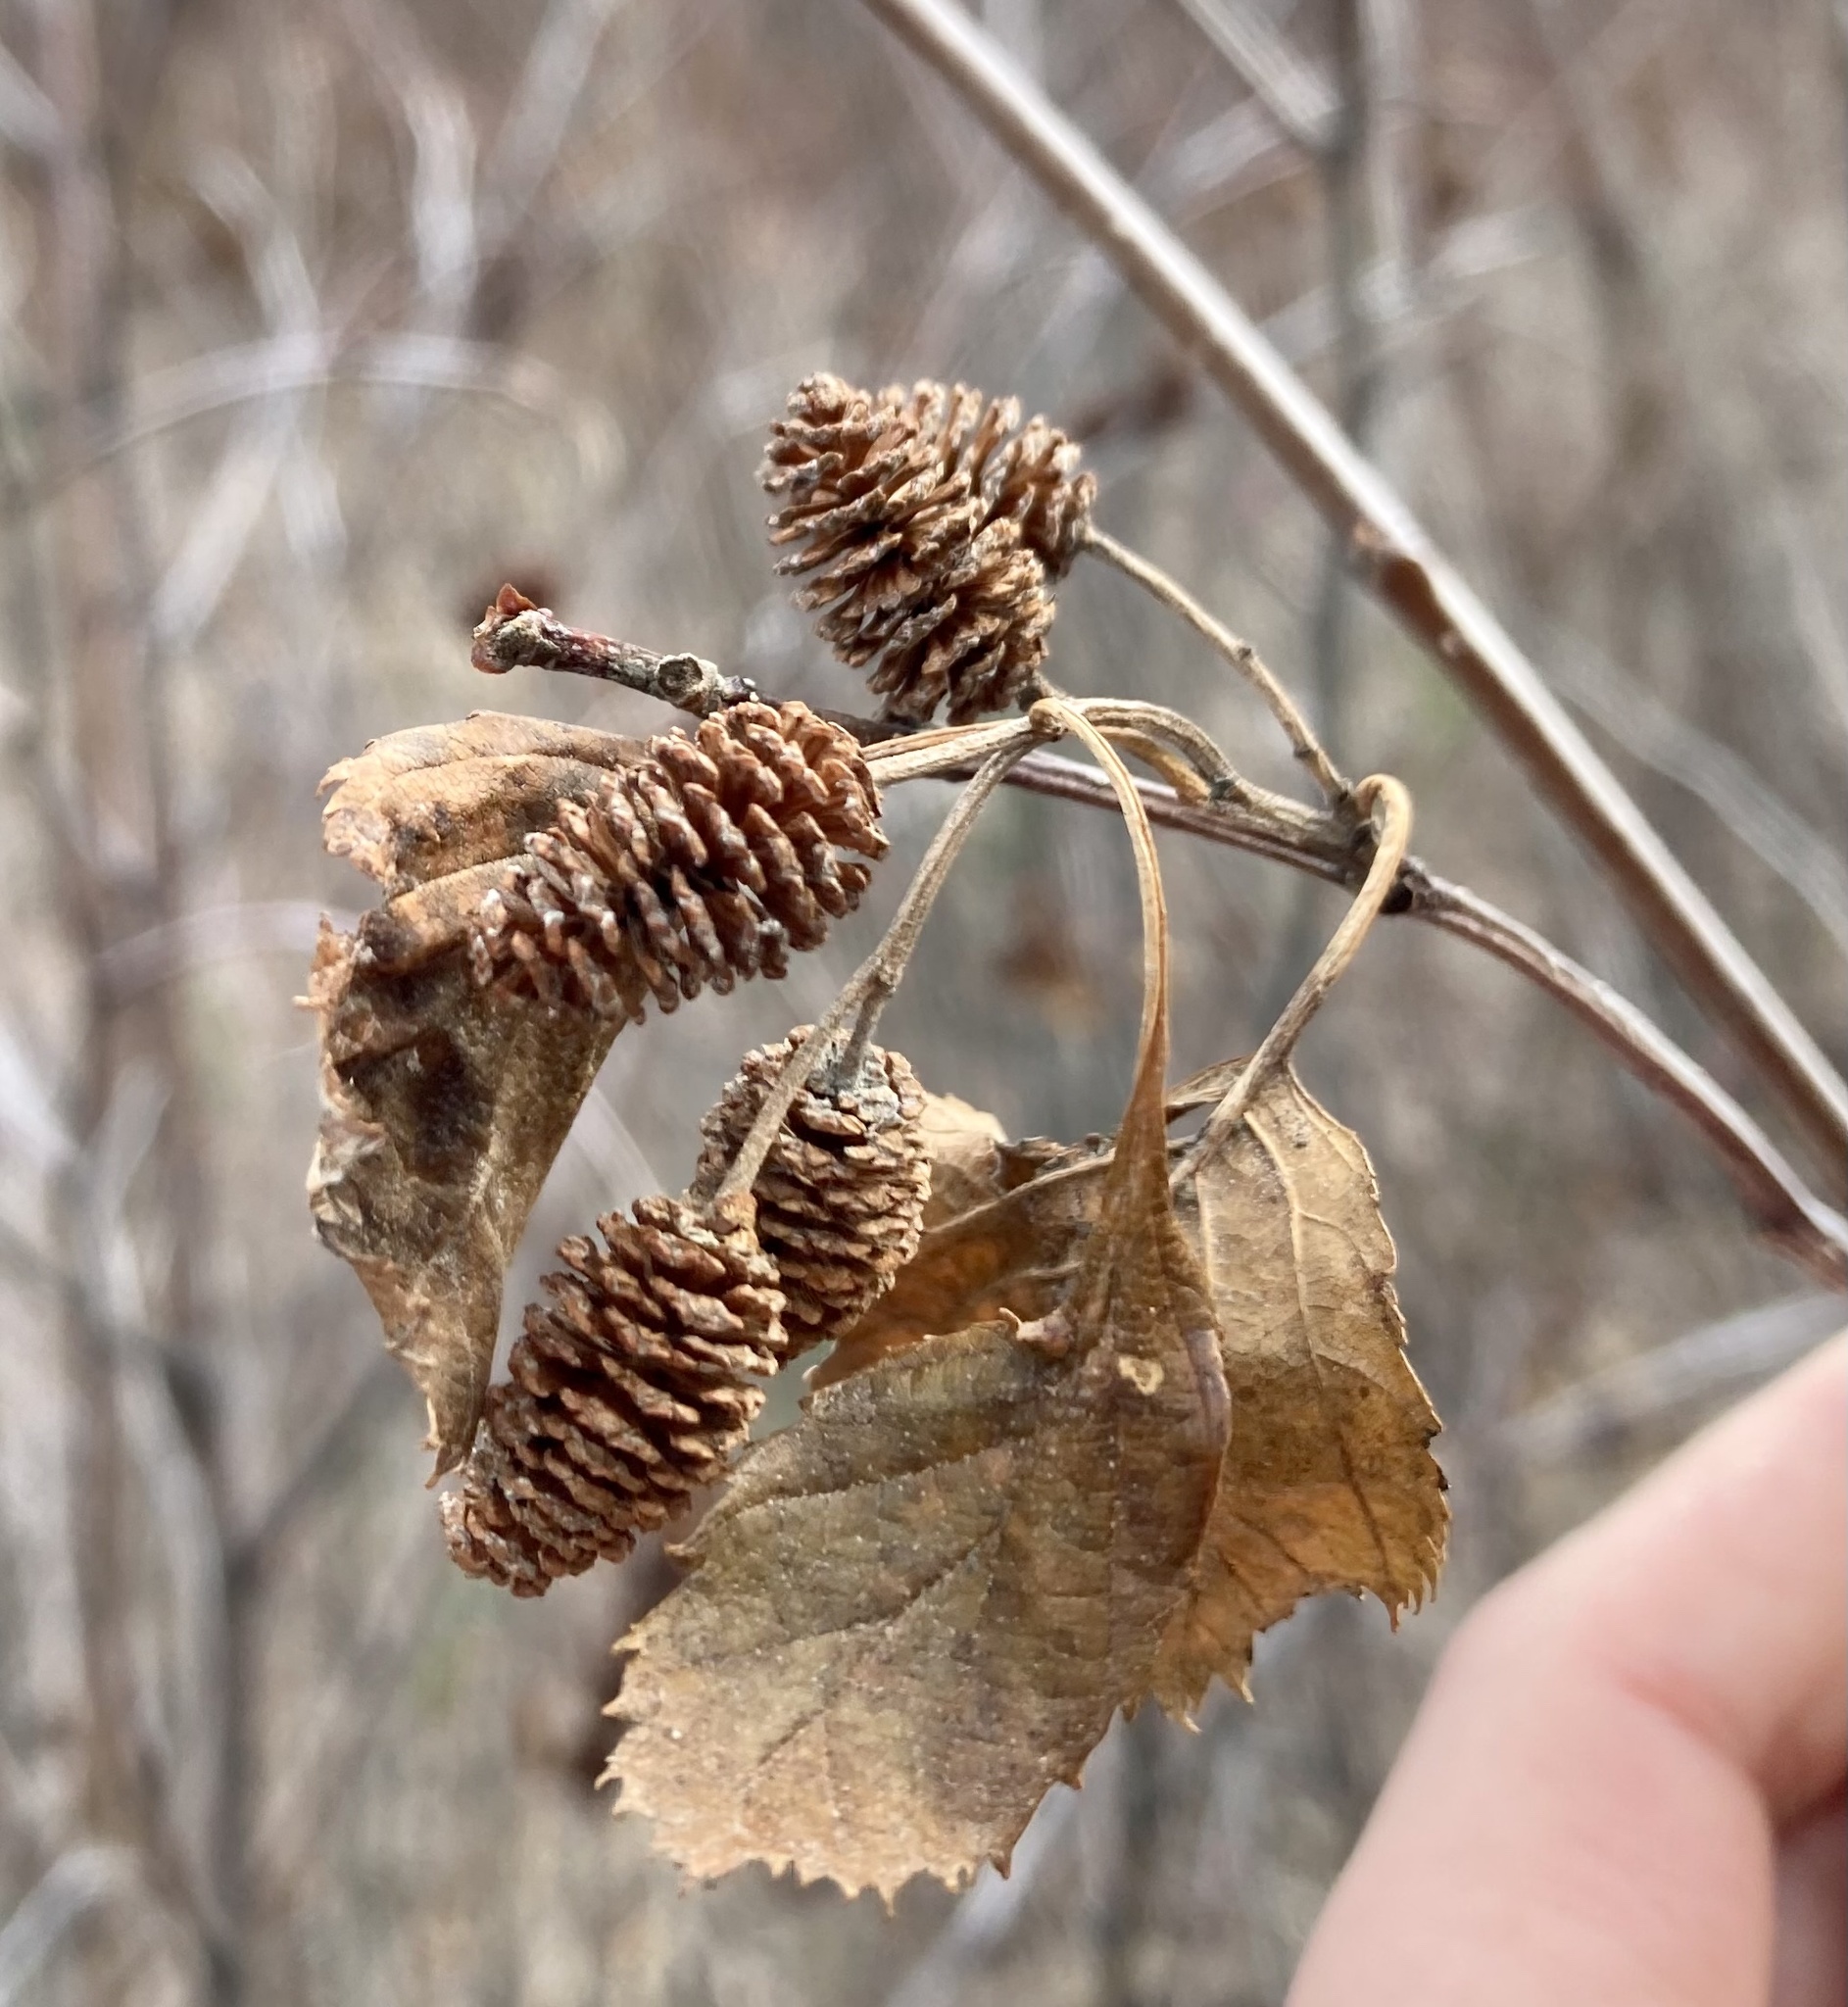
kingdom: Plantae
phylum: Tracheophyta
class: Magnoliopsida
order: Fagales
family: Betulaceae
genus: Alnus
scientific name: Alnus alnobetula
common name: Green alder
